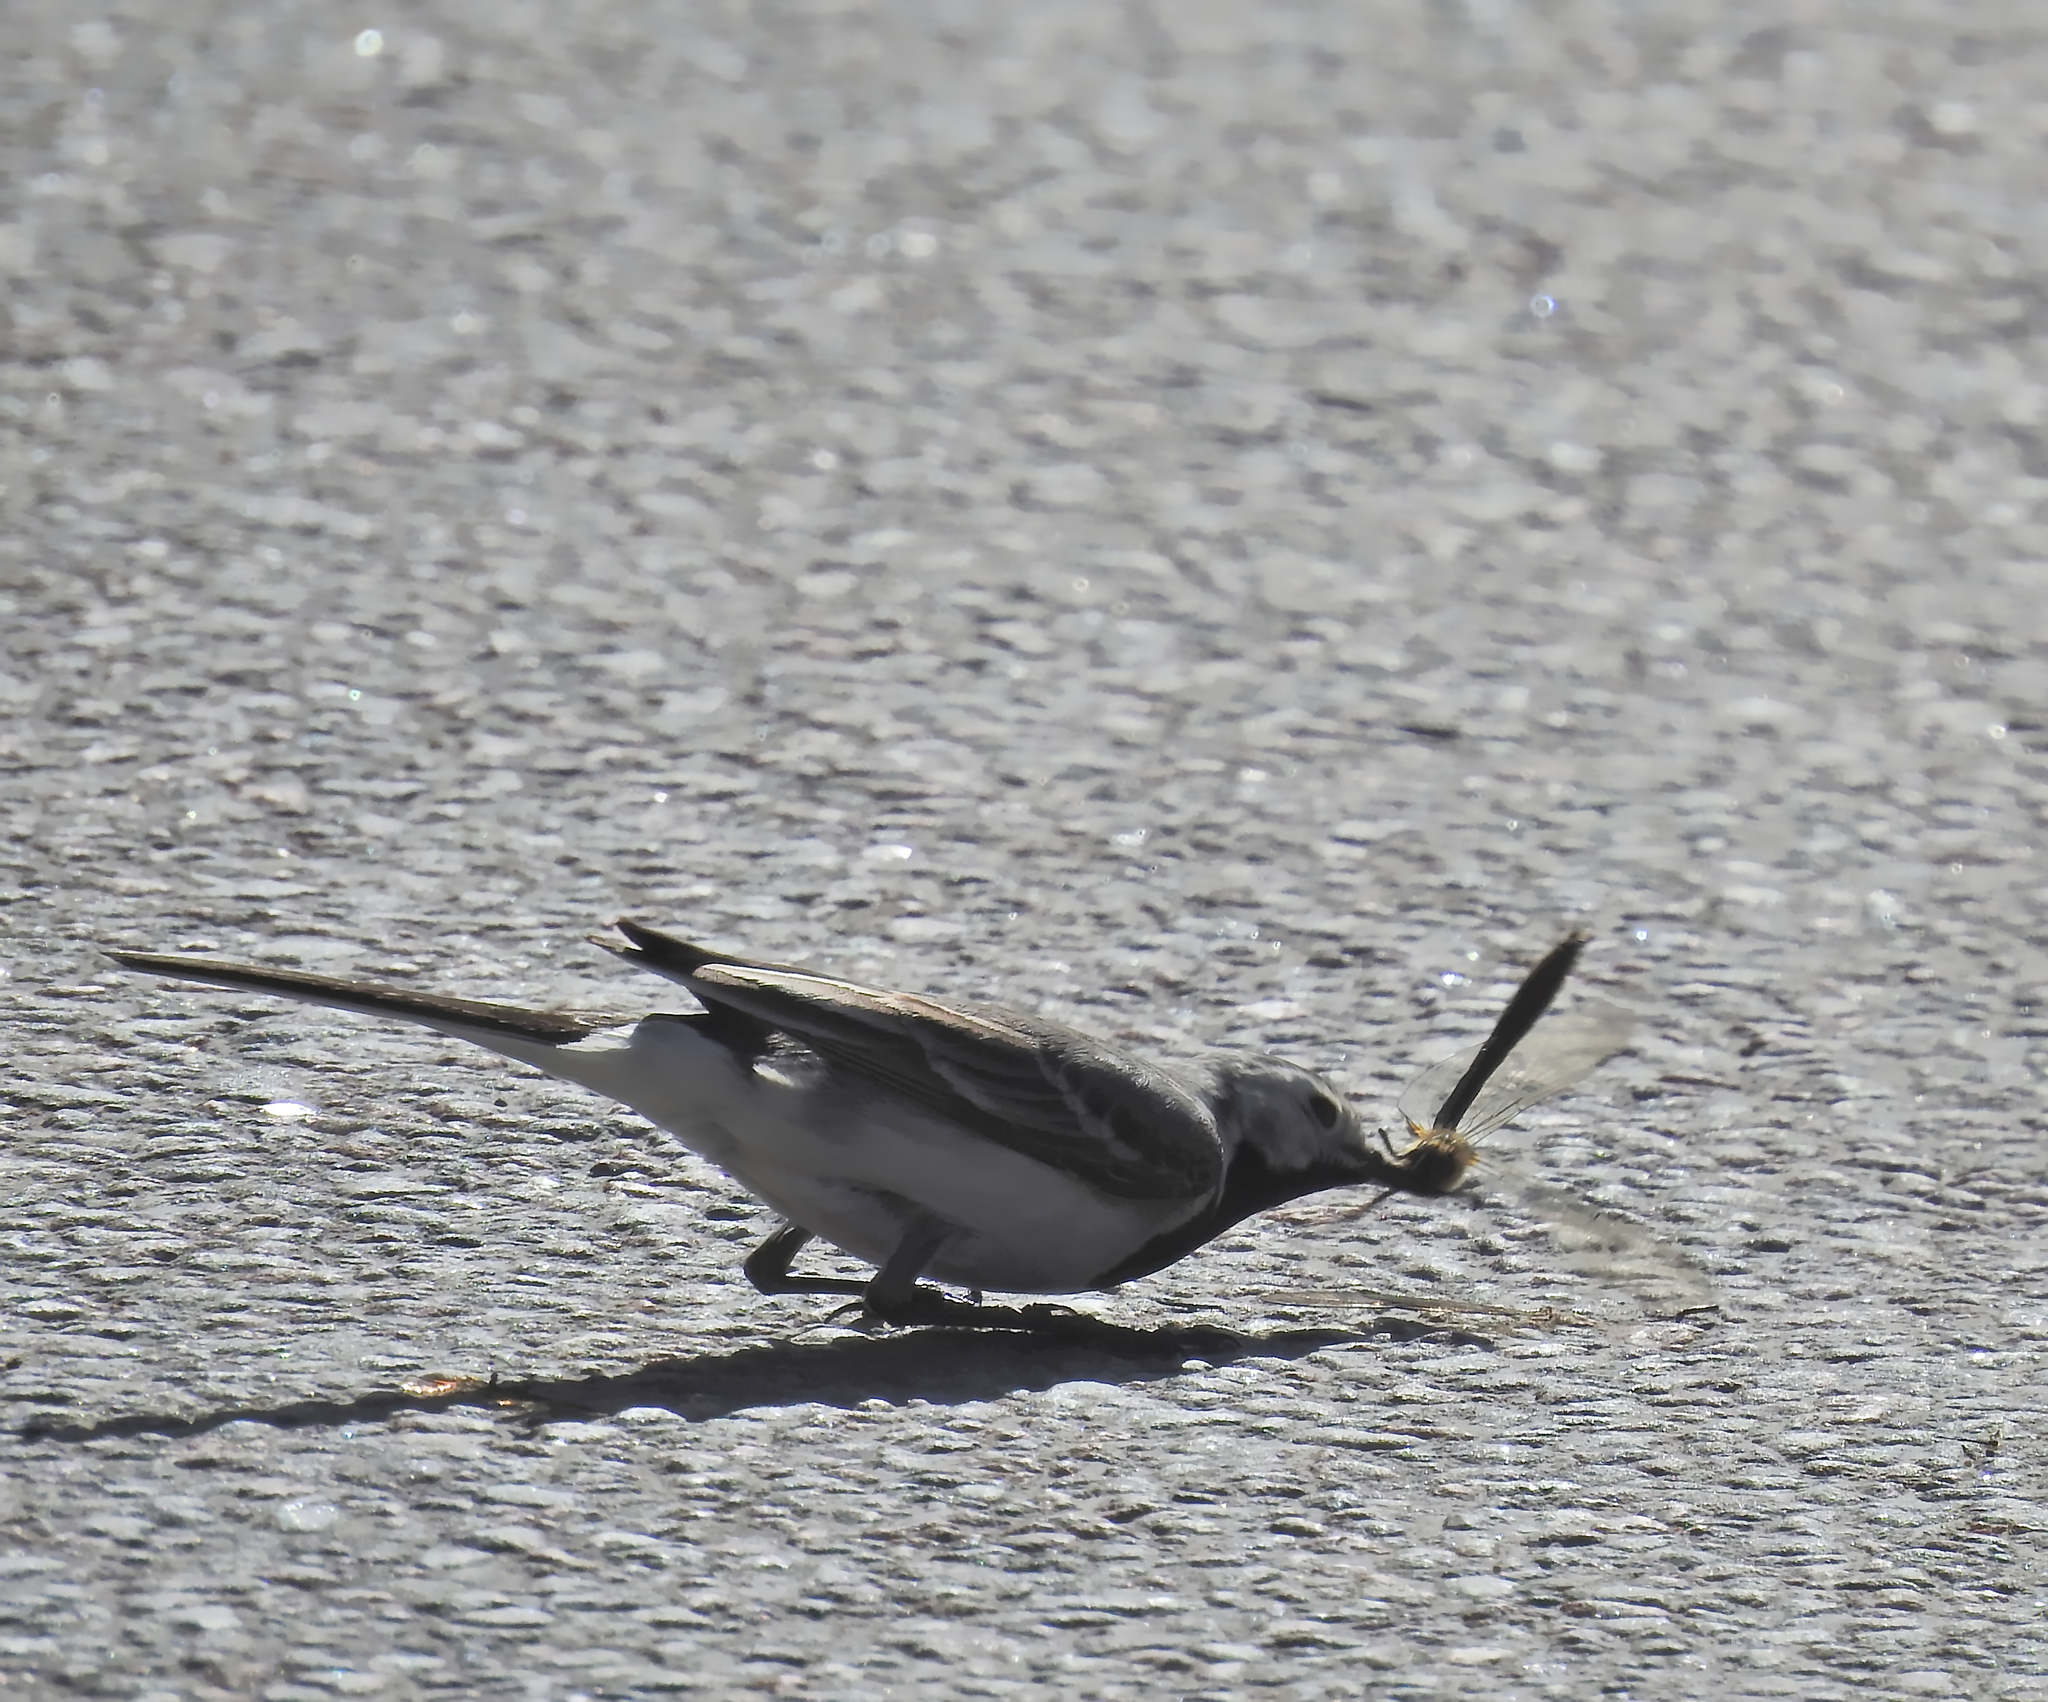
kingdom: Animalia
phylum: Chordata
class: Aves
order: Passeriformes
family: Motacillidae
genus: Motacilla
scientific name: Motacilla alba
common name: White wagtail
